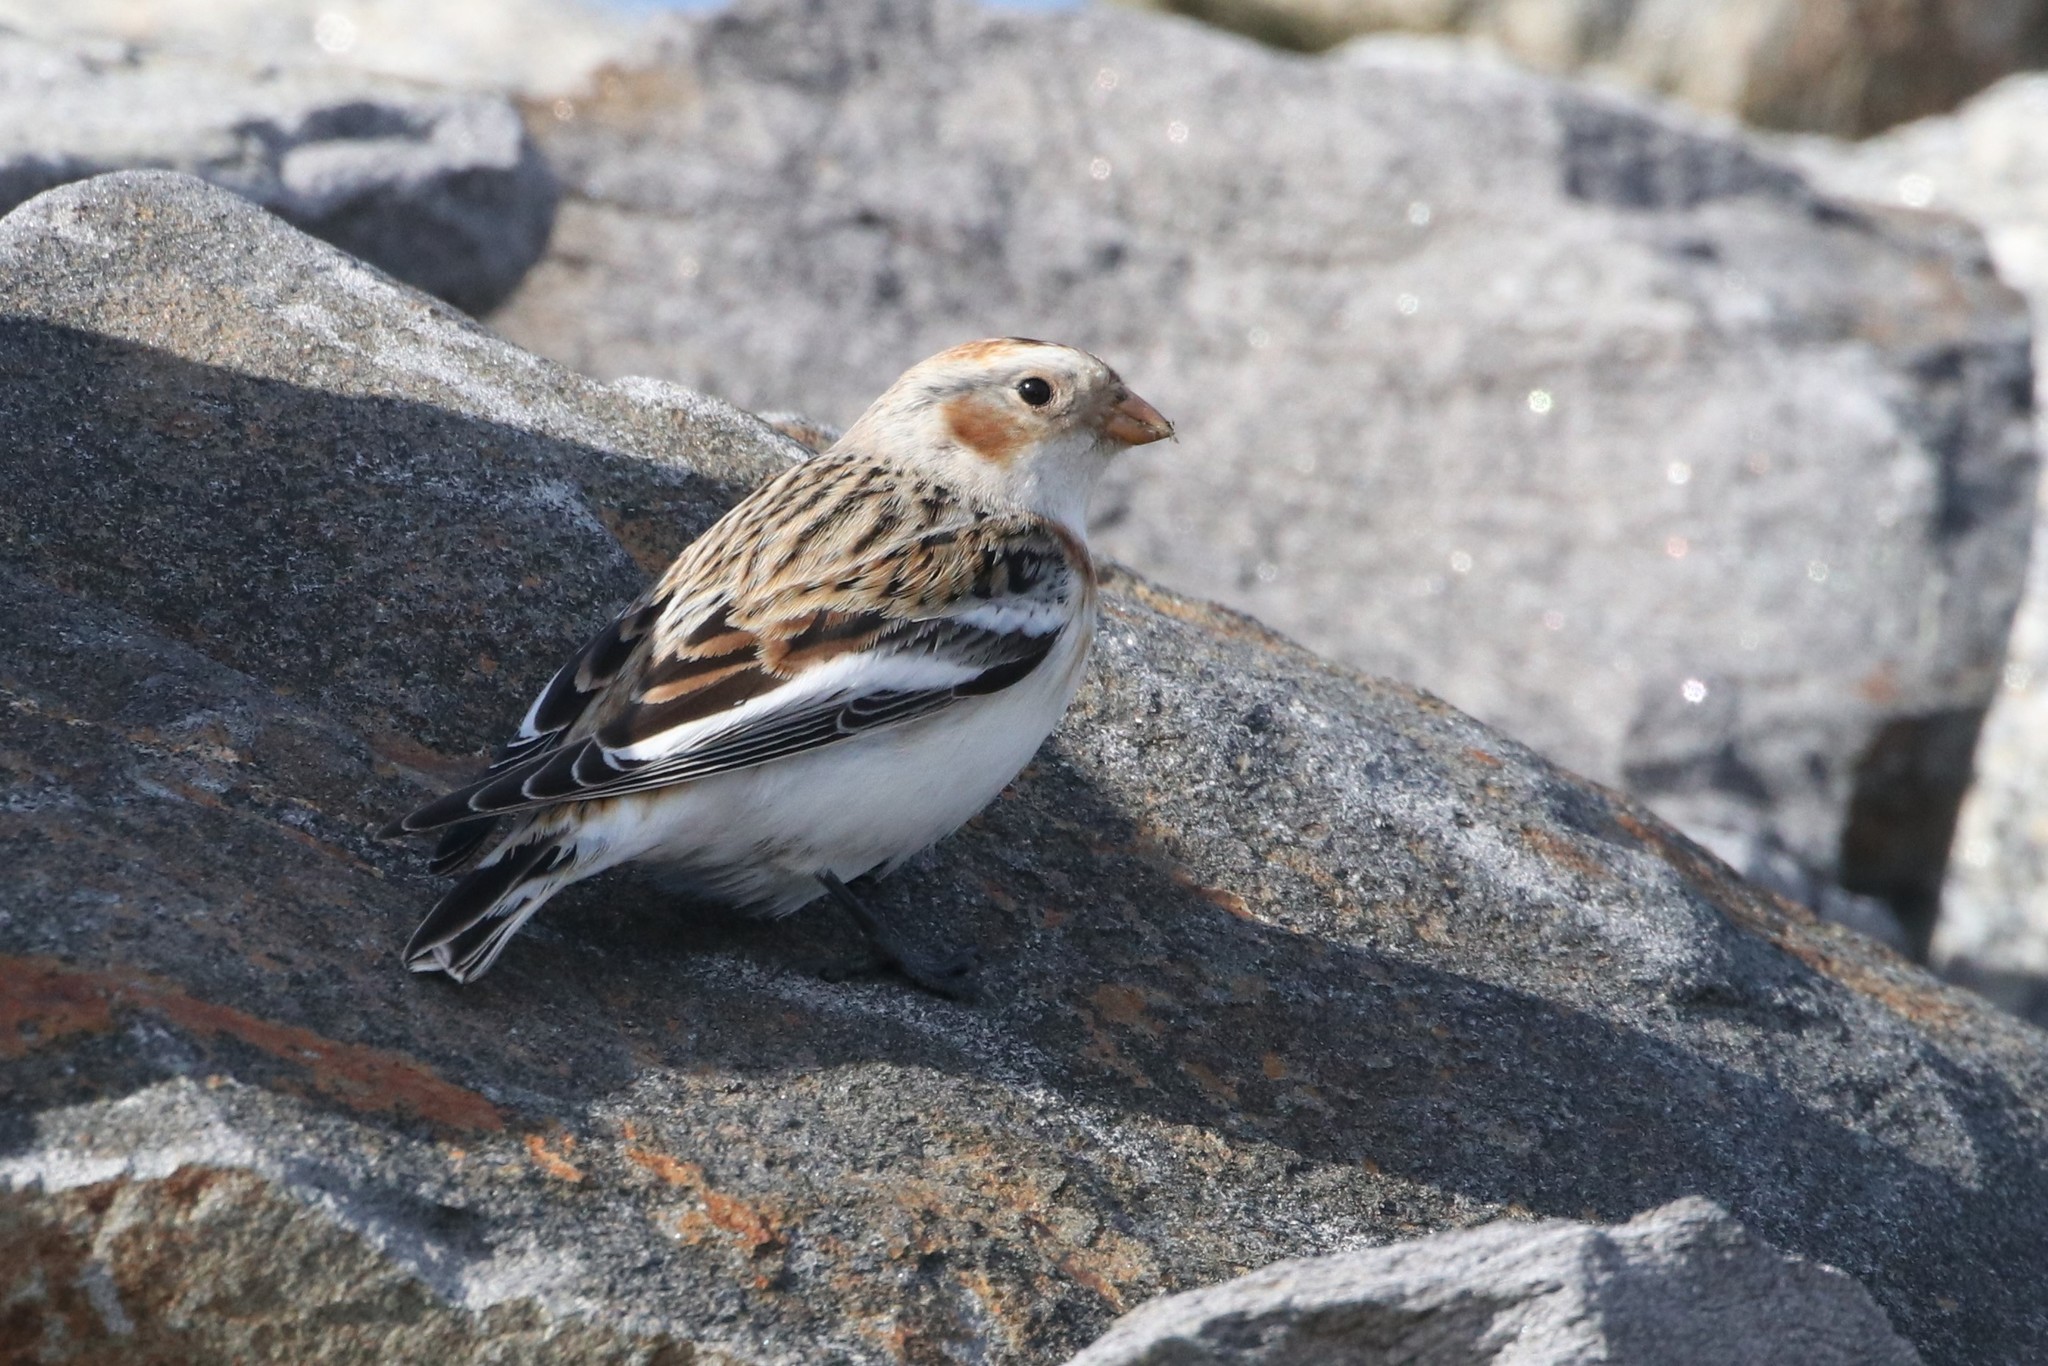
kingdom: Animalia
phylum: Chordata
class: Aves
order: Passeriformes
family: Calcariidae
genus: Plectrophenax
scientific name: Plectrophenax nivalis
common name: Snow bunting
